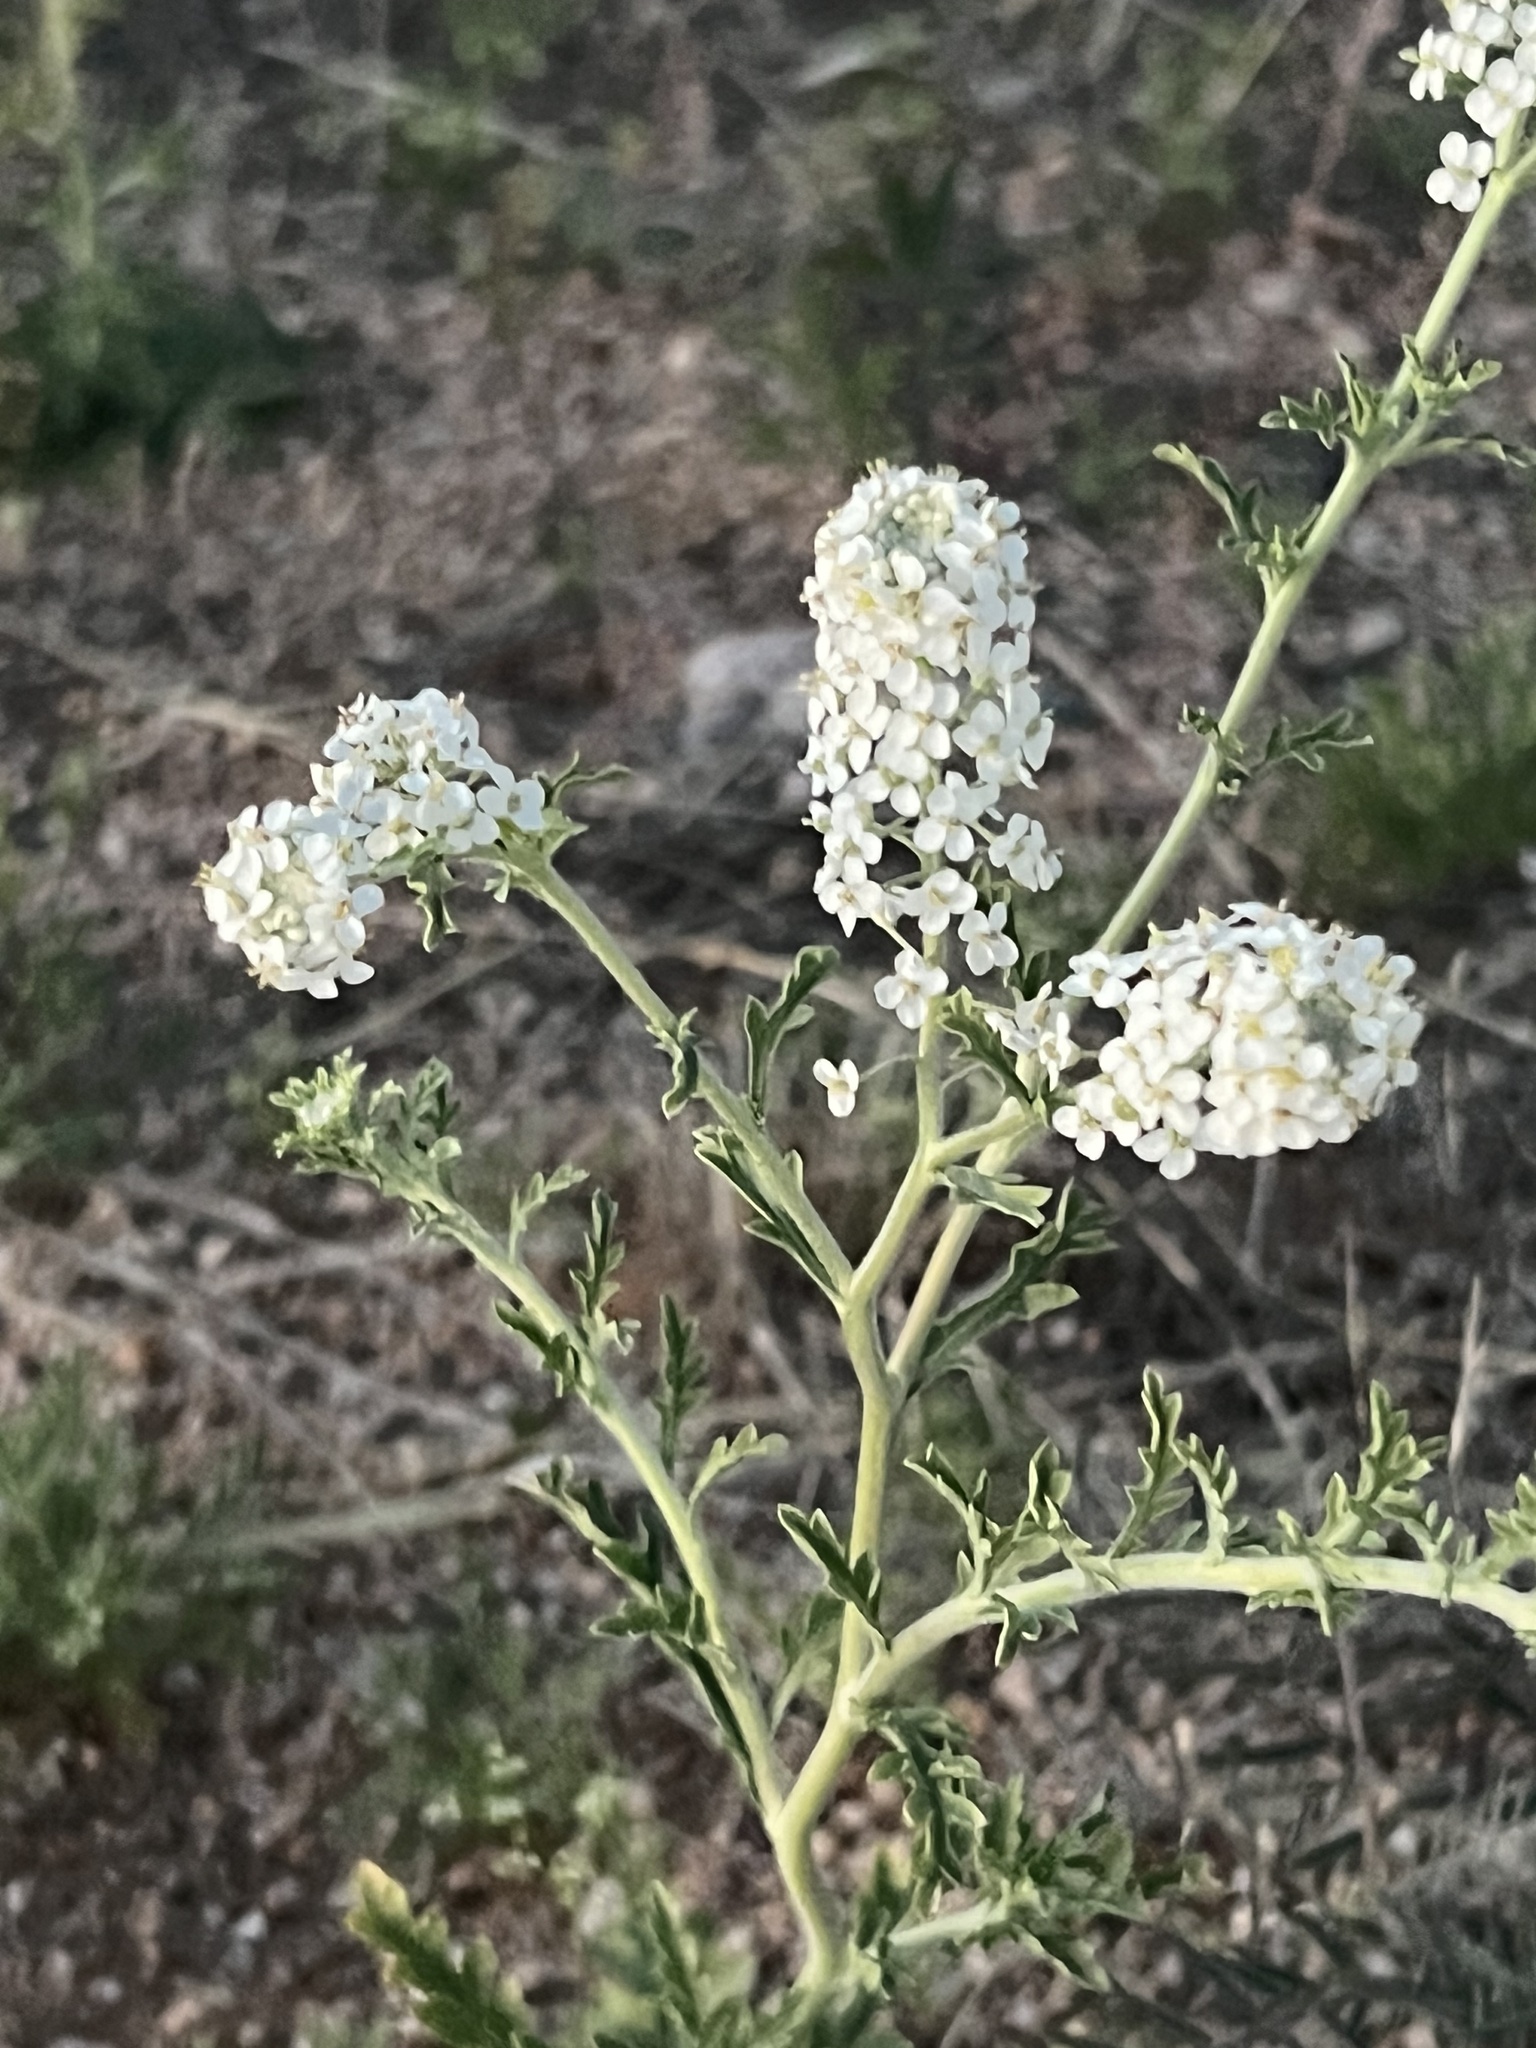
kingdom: Plantae
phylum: Tracheophyta
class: Magnoliopsida
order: Brassicales
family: Brassicaceae
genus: Lepidium
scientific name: Lepidium thurberi
